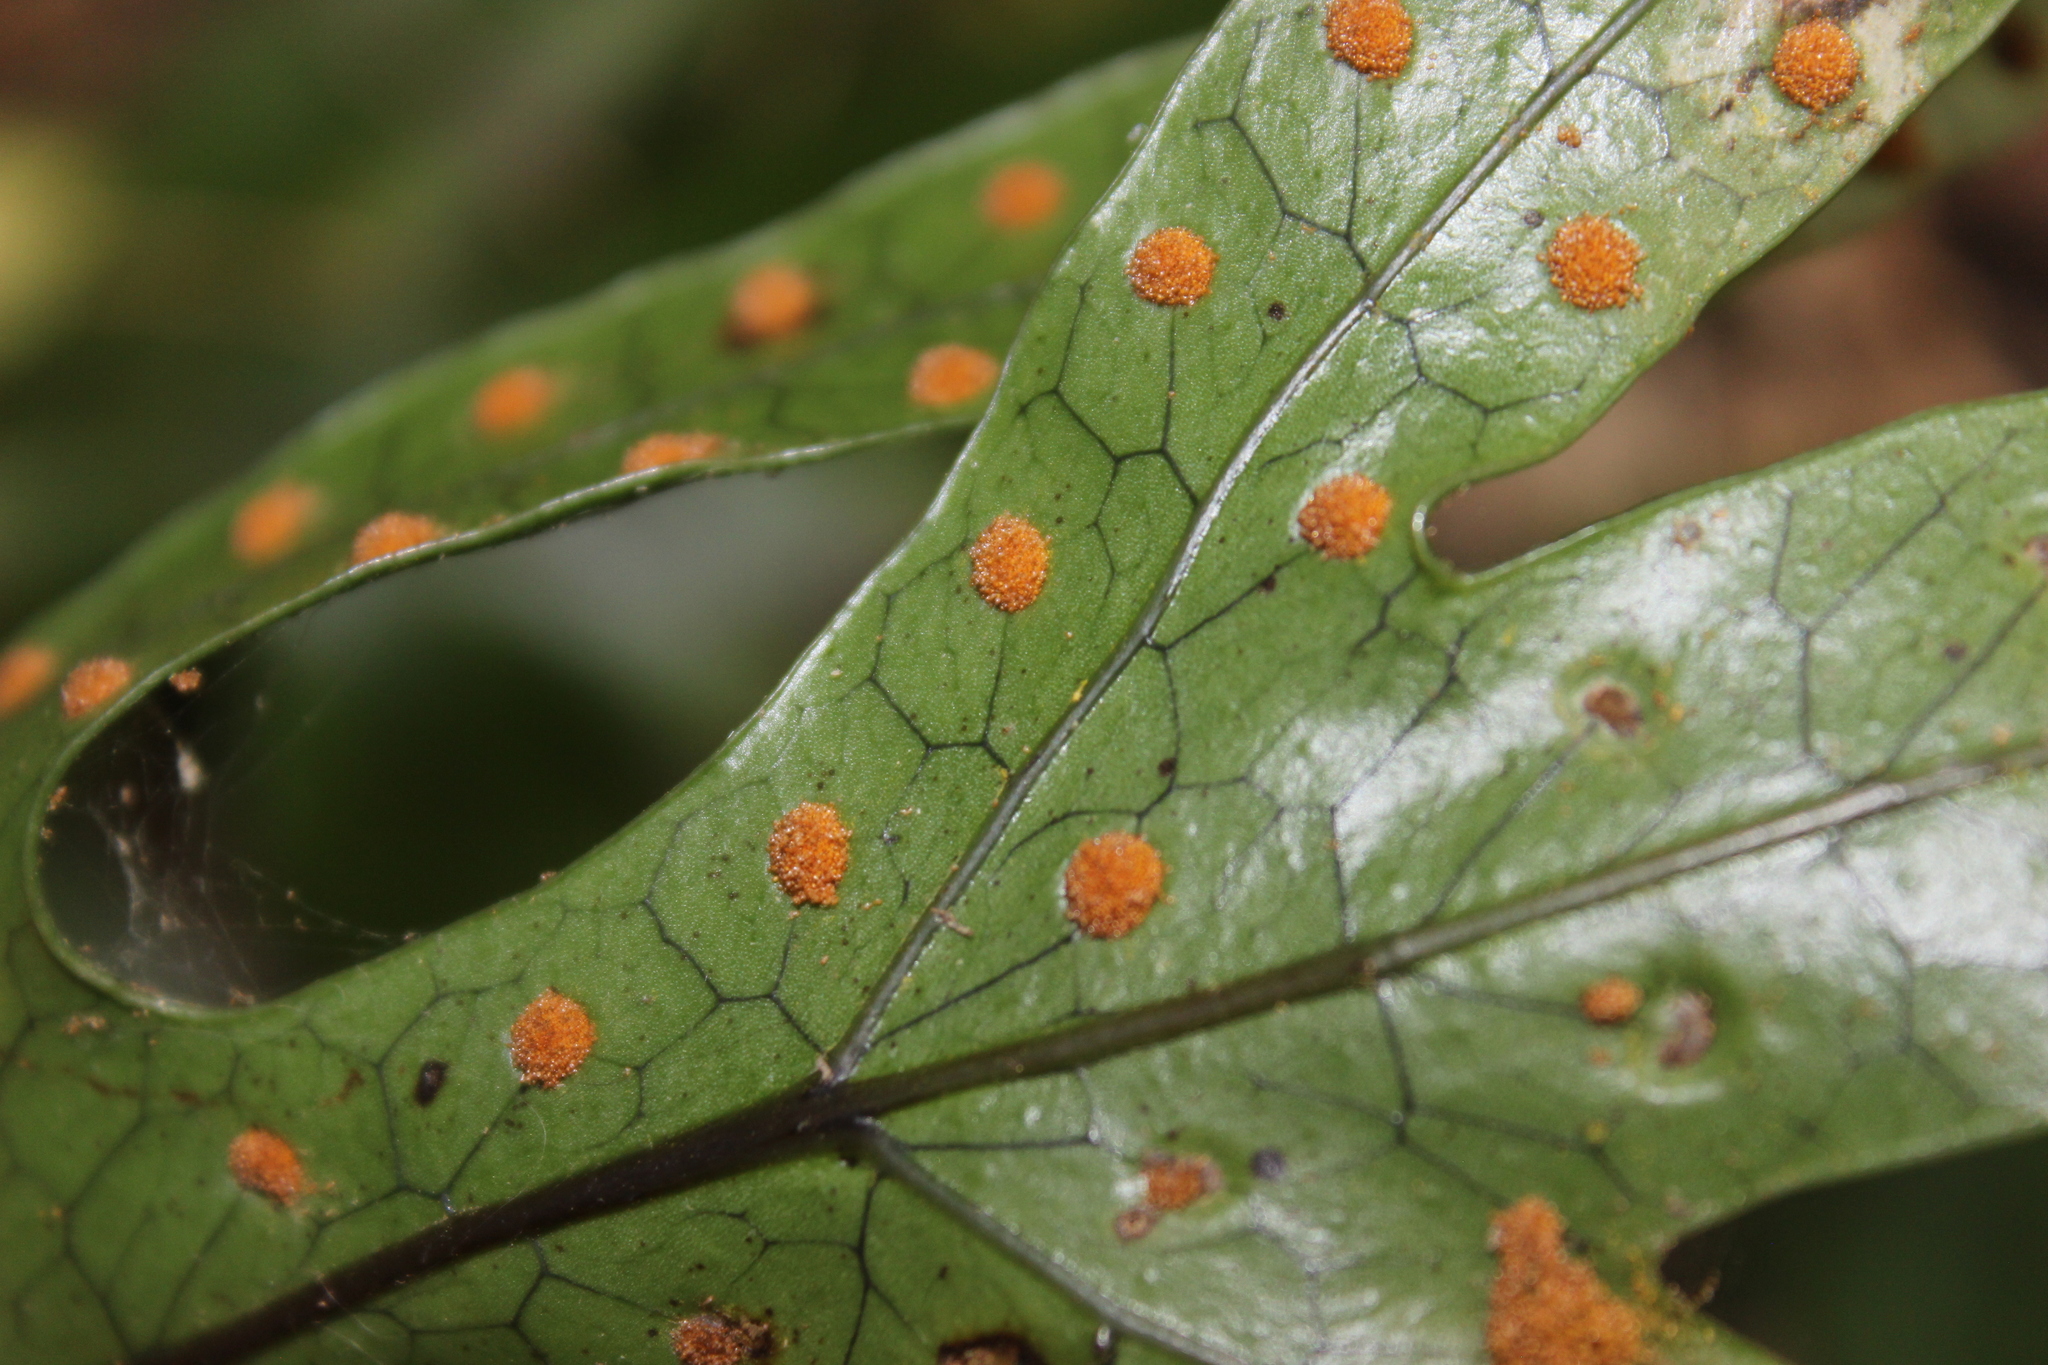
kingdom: Plantae
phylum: Tracheophyta
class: Polypodiopsida
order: Polypodiales
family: Polypodiaceae
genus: Lecanopteris
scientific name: Lecanopteris pustulata
